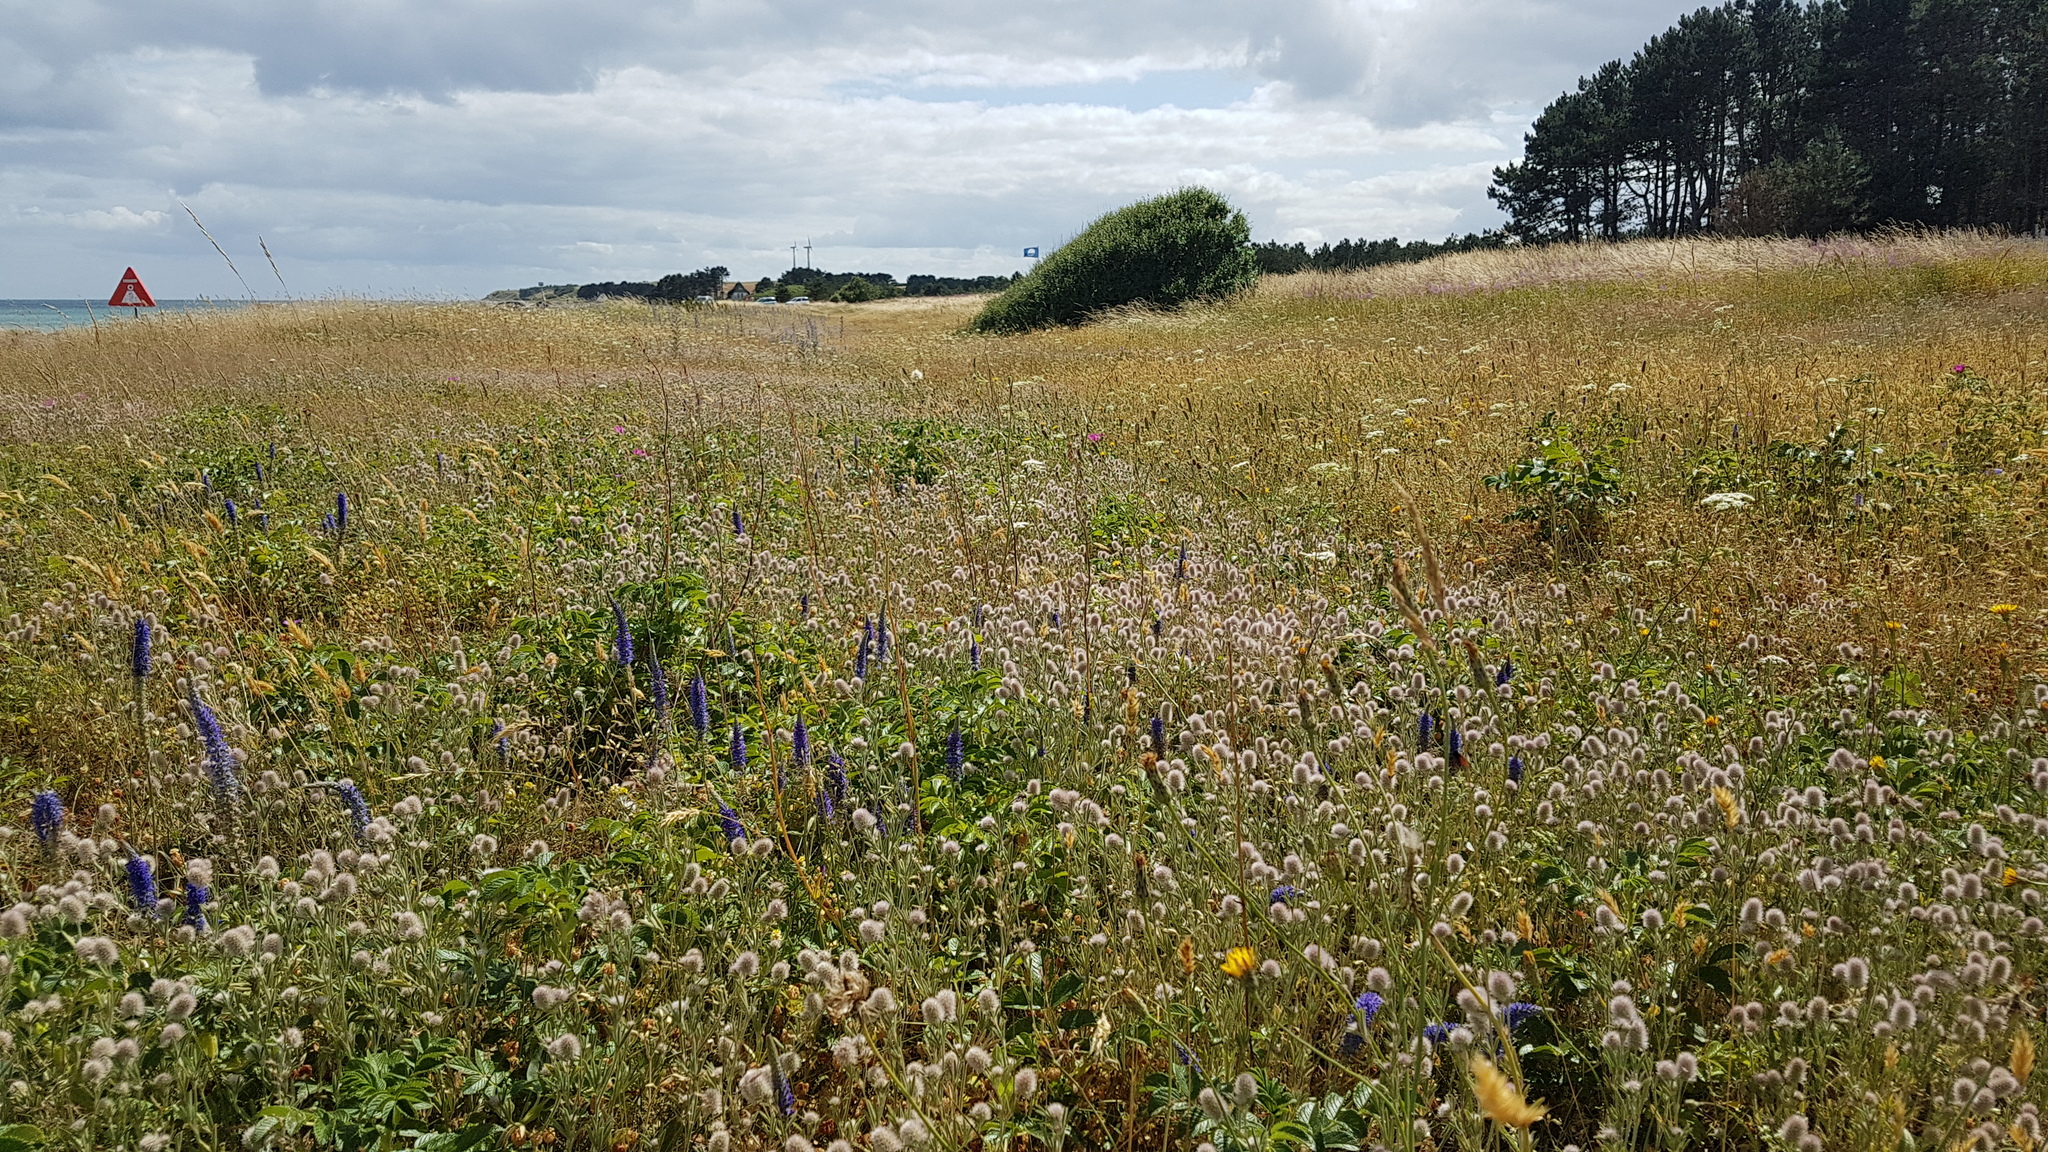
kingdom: Plantae
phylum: Tracheophyta
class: Magnoliopsida
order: Lamiales
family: Plantaginaceae
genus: Veronica
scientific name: Veronica spicata
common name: Spiked speedwell
